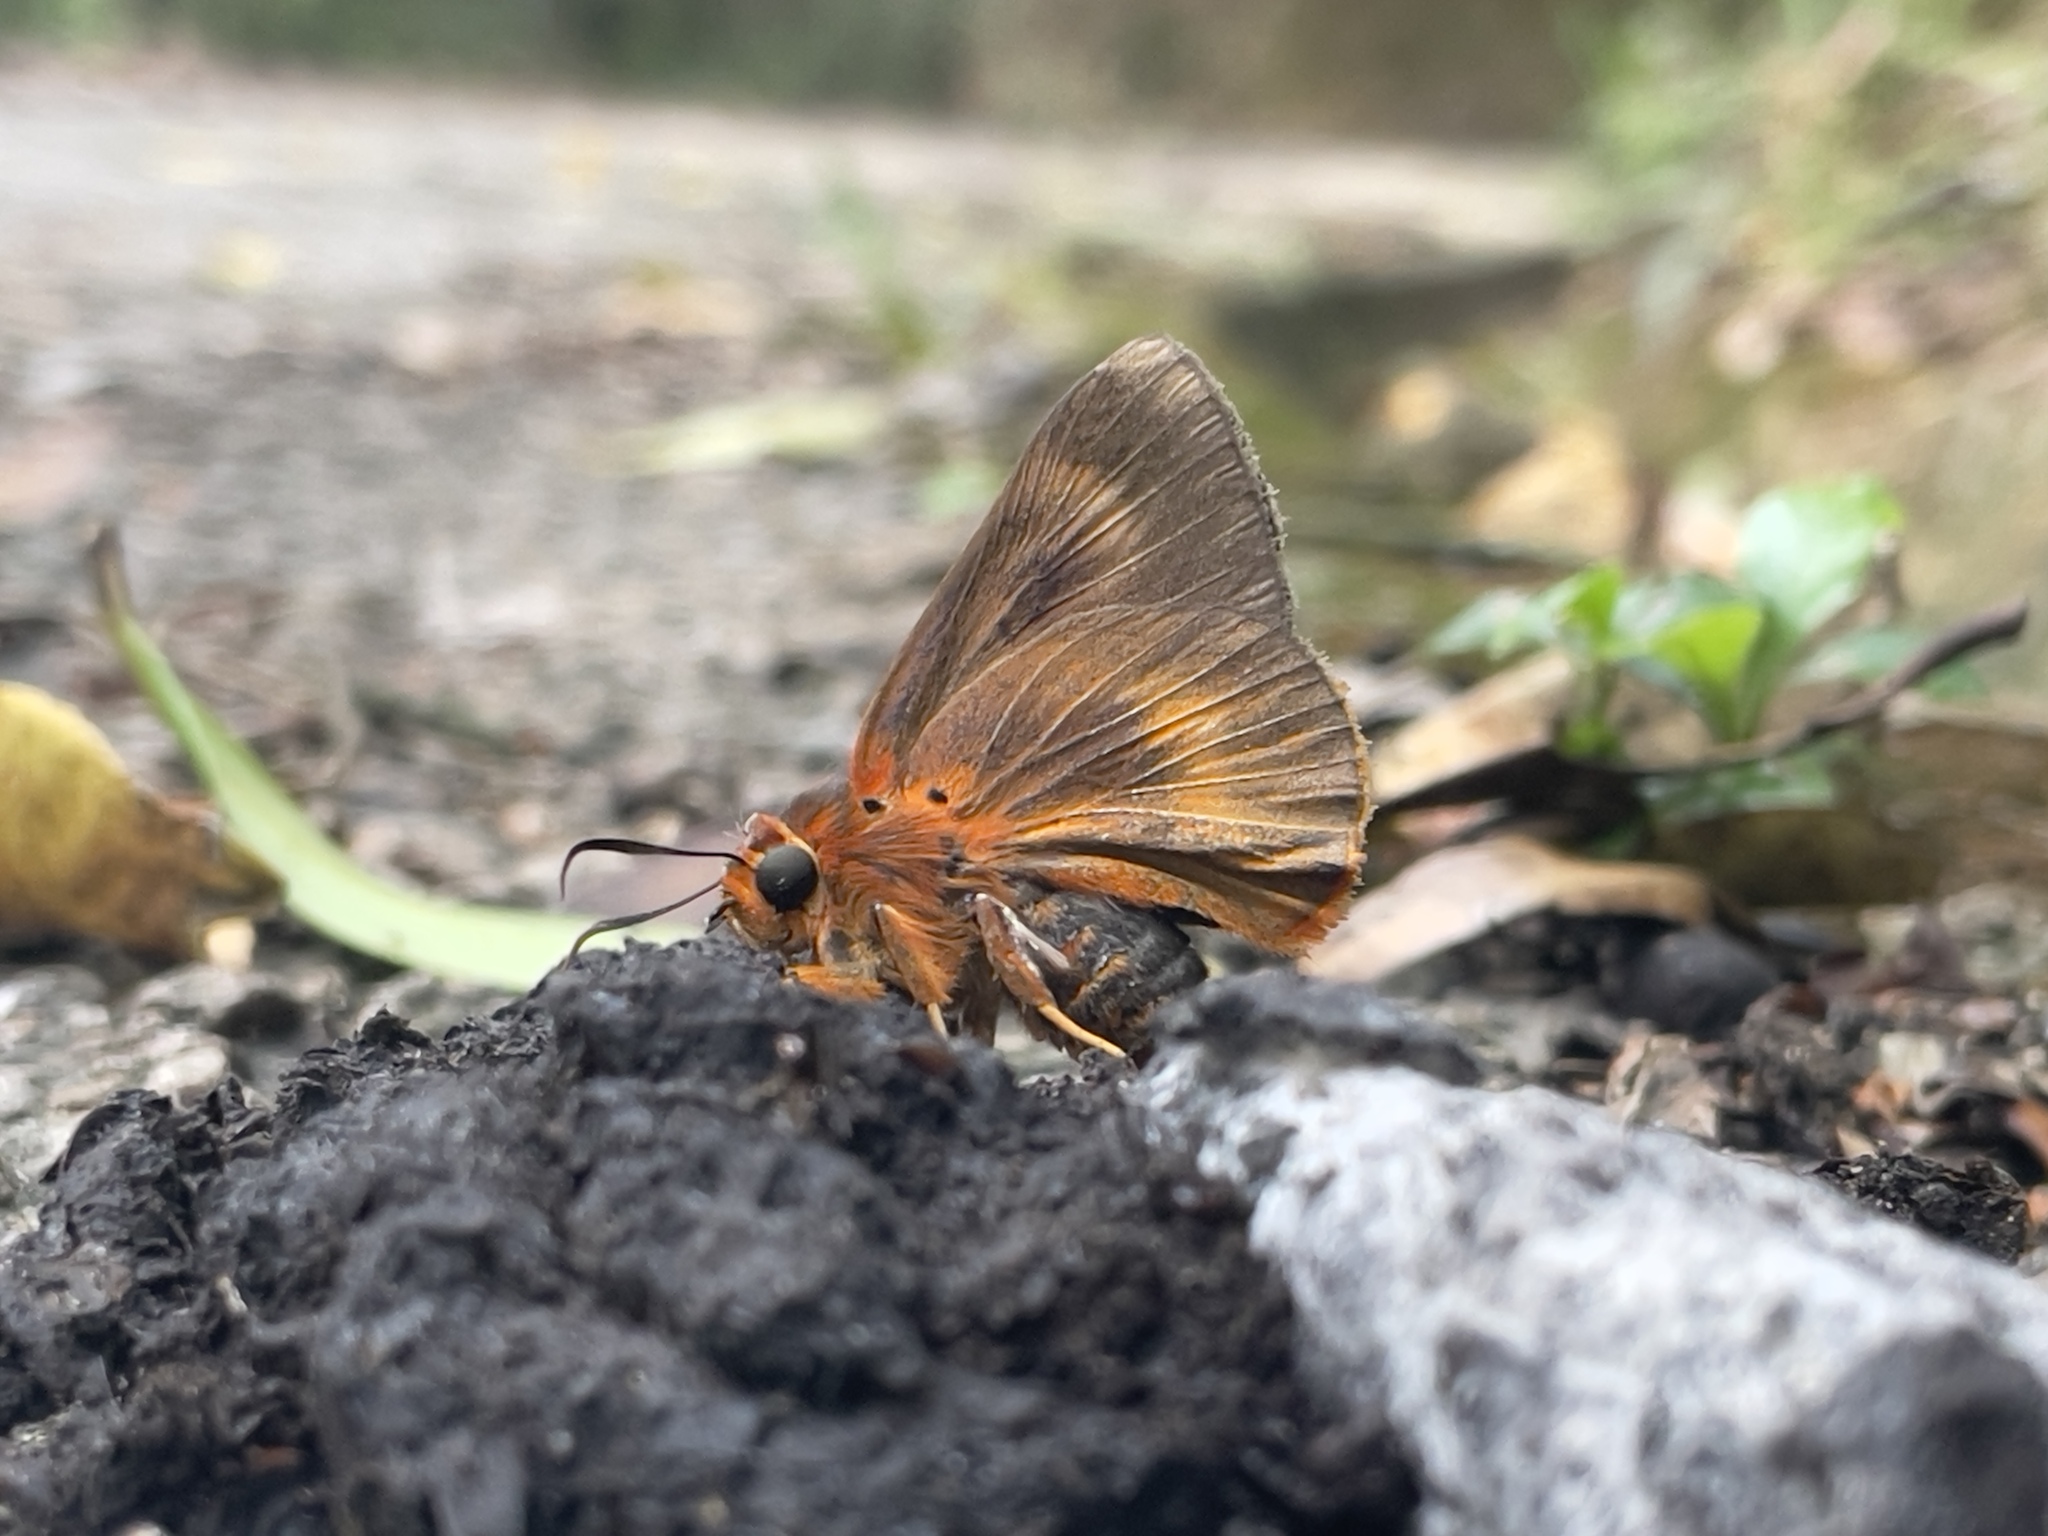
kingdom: Animalia
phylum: Arthropoda
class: Insecta
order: Lepidoptera
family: Hesperiidae
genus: Bibasis
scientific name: Bibasis oedipodea
